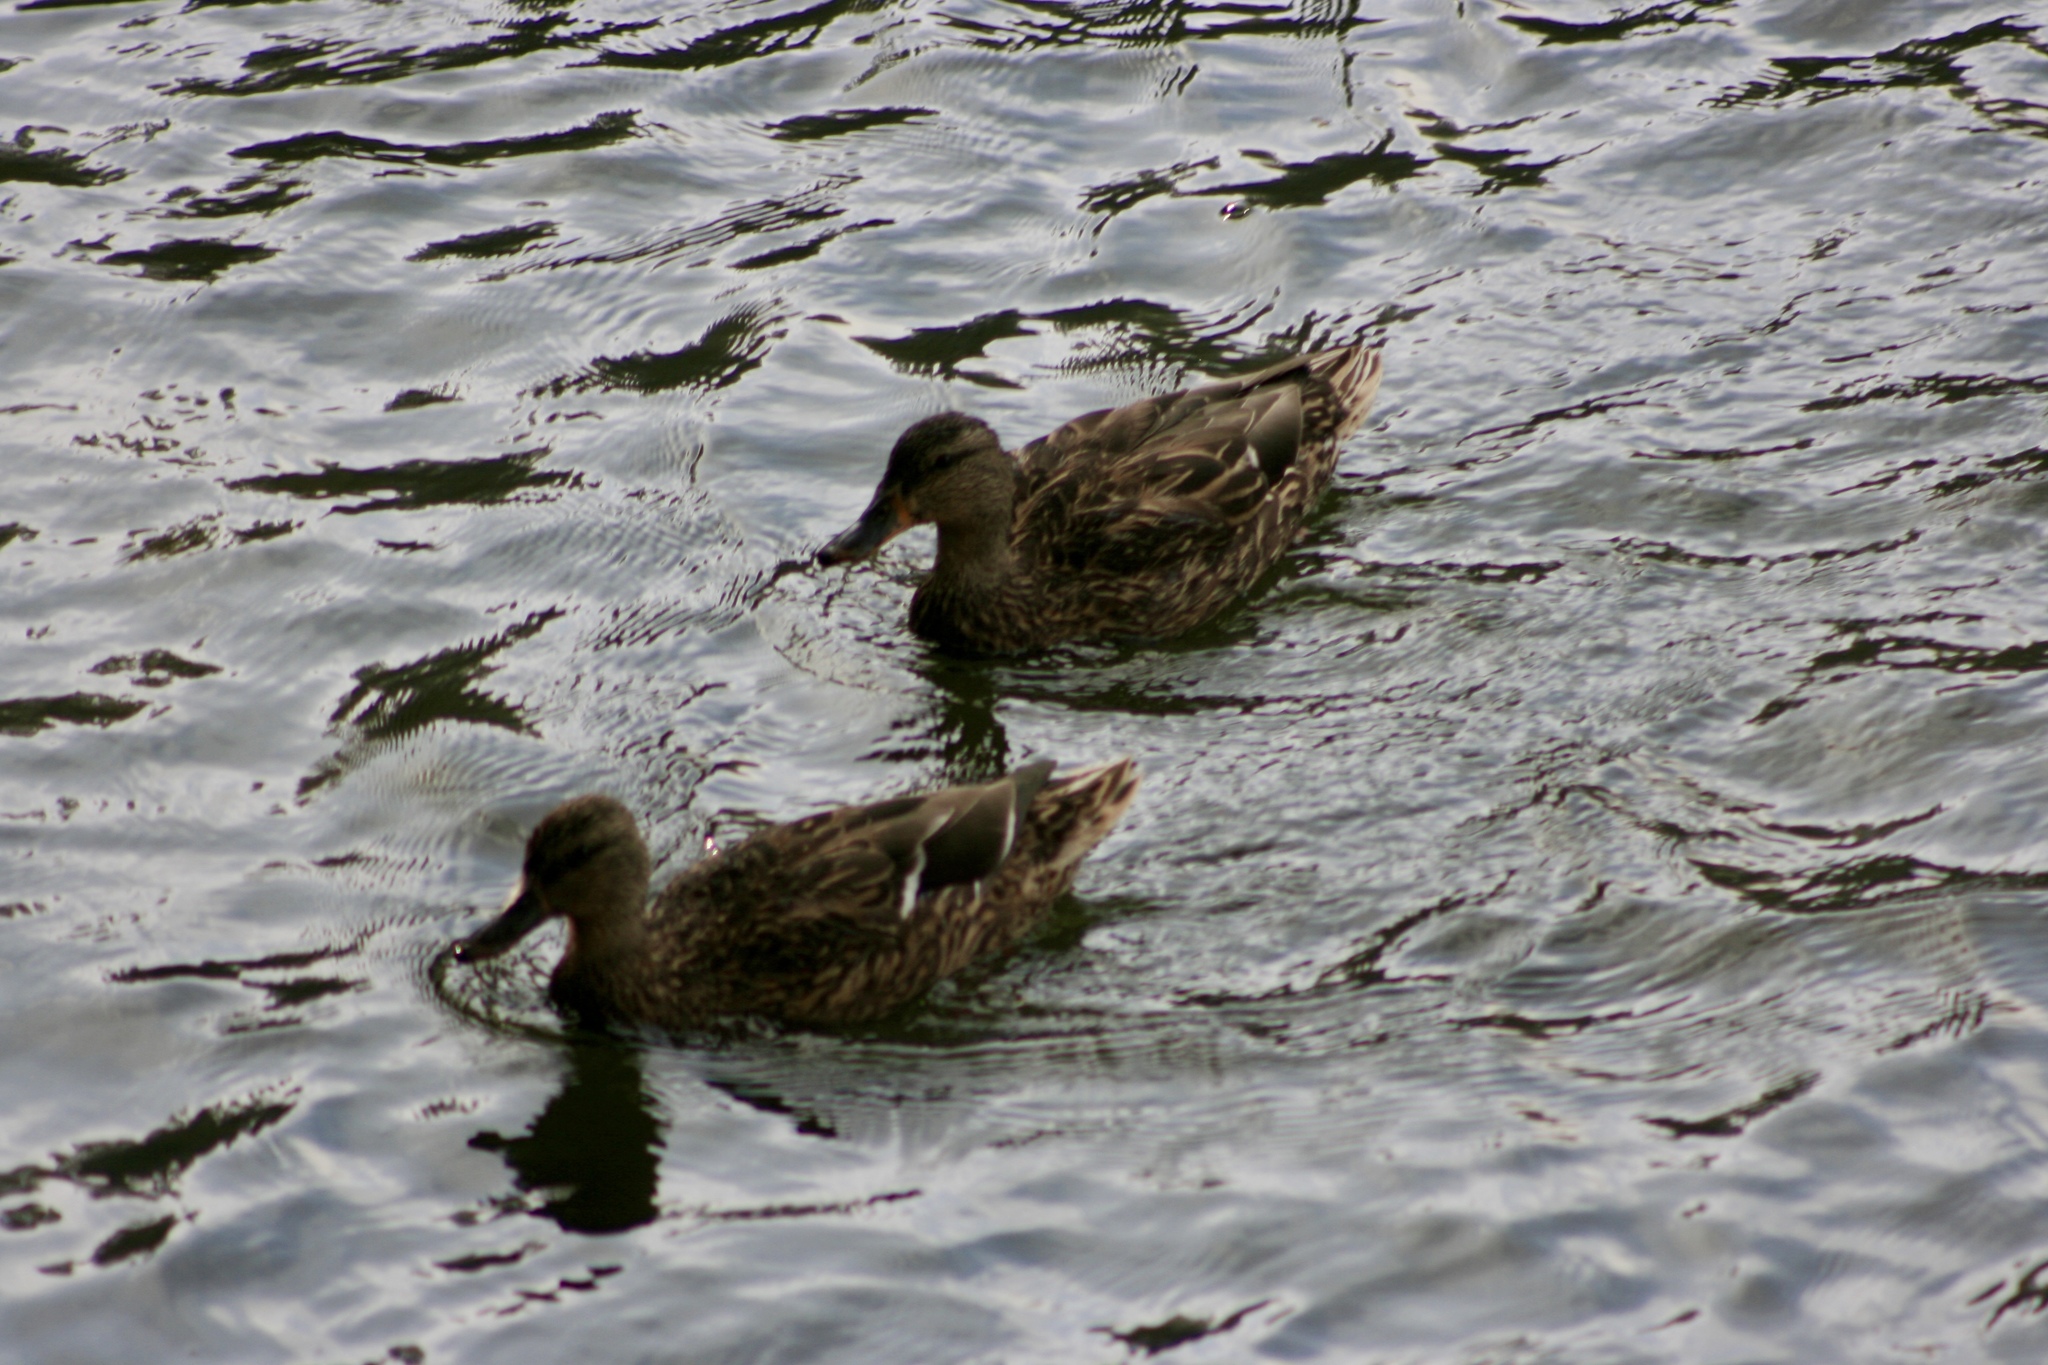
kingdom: Animalia
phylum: Chordata
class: Aves
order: Anseriformes
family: Anatidae
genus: Anas
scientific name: Anas platyrhynchos
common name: Mallard
